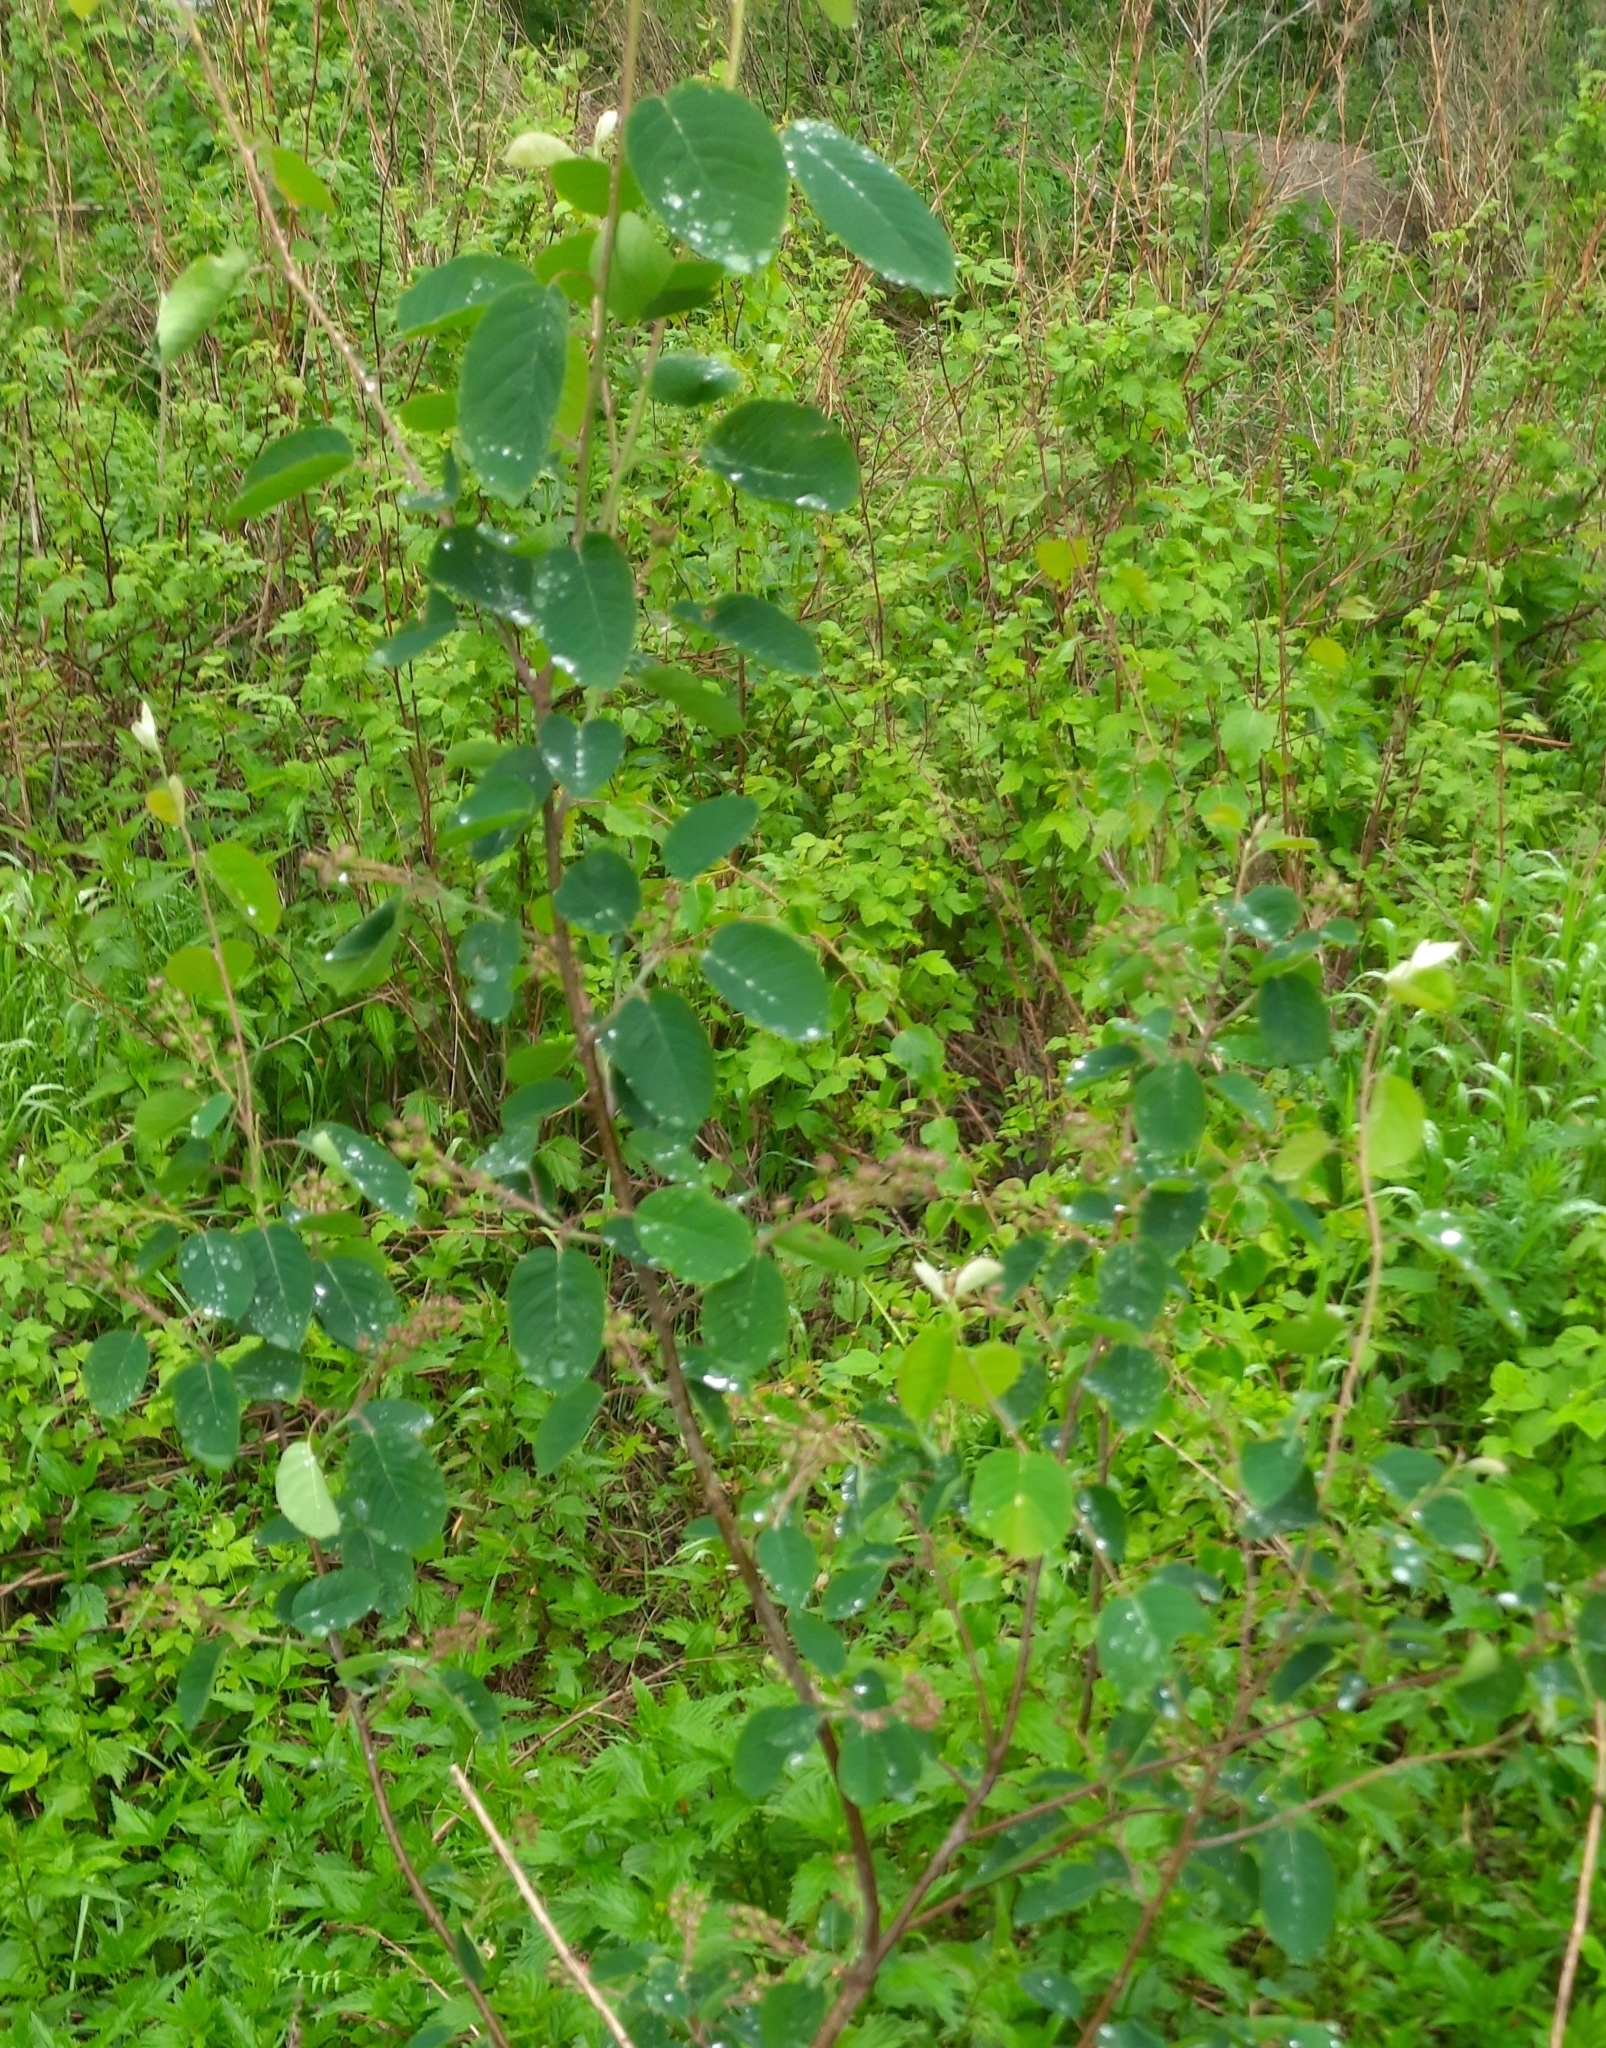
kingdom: Plantae
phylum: Tracheophyta
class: Magnoliopsida
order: Rosales
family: Rosaceae
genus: Amelanchier
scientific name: Amelanchier
